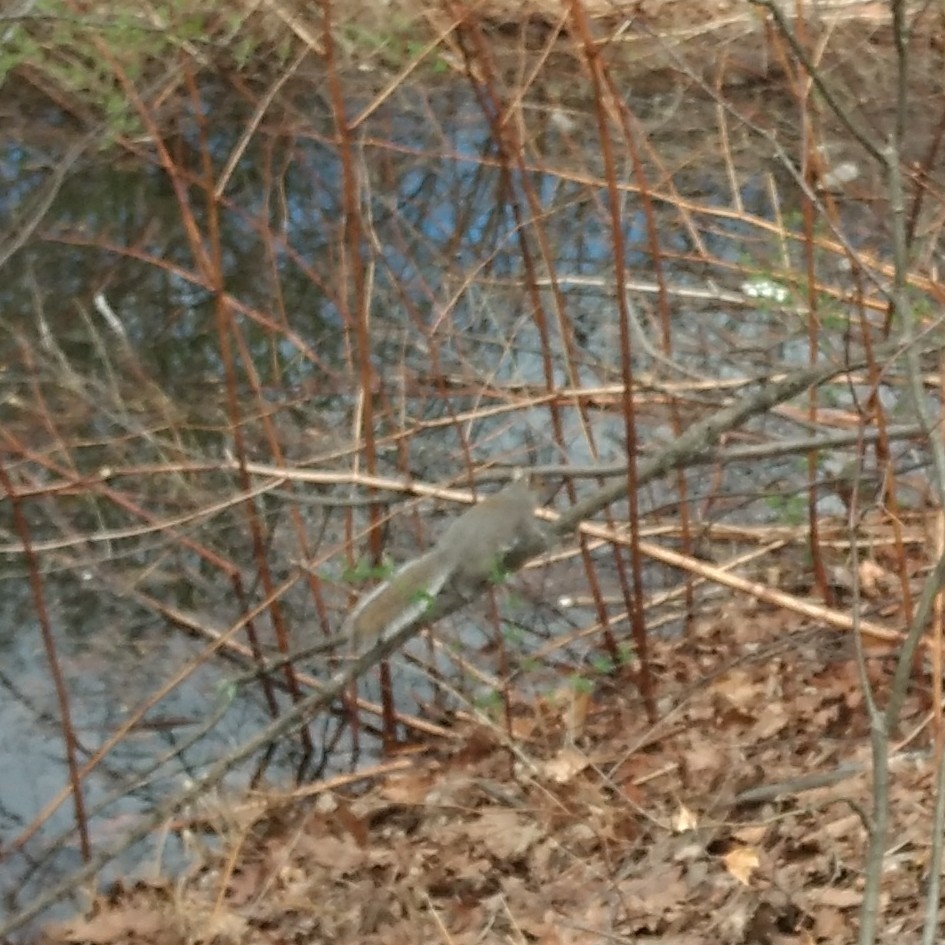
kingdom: Animalia
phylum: Chordata
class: Mammalia
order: Rodentia
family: Sciuridae
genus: Sciurus
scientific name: Sciurus carolinensis
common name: Eastern gray squirrel
